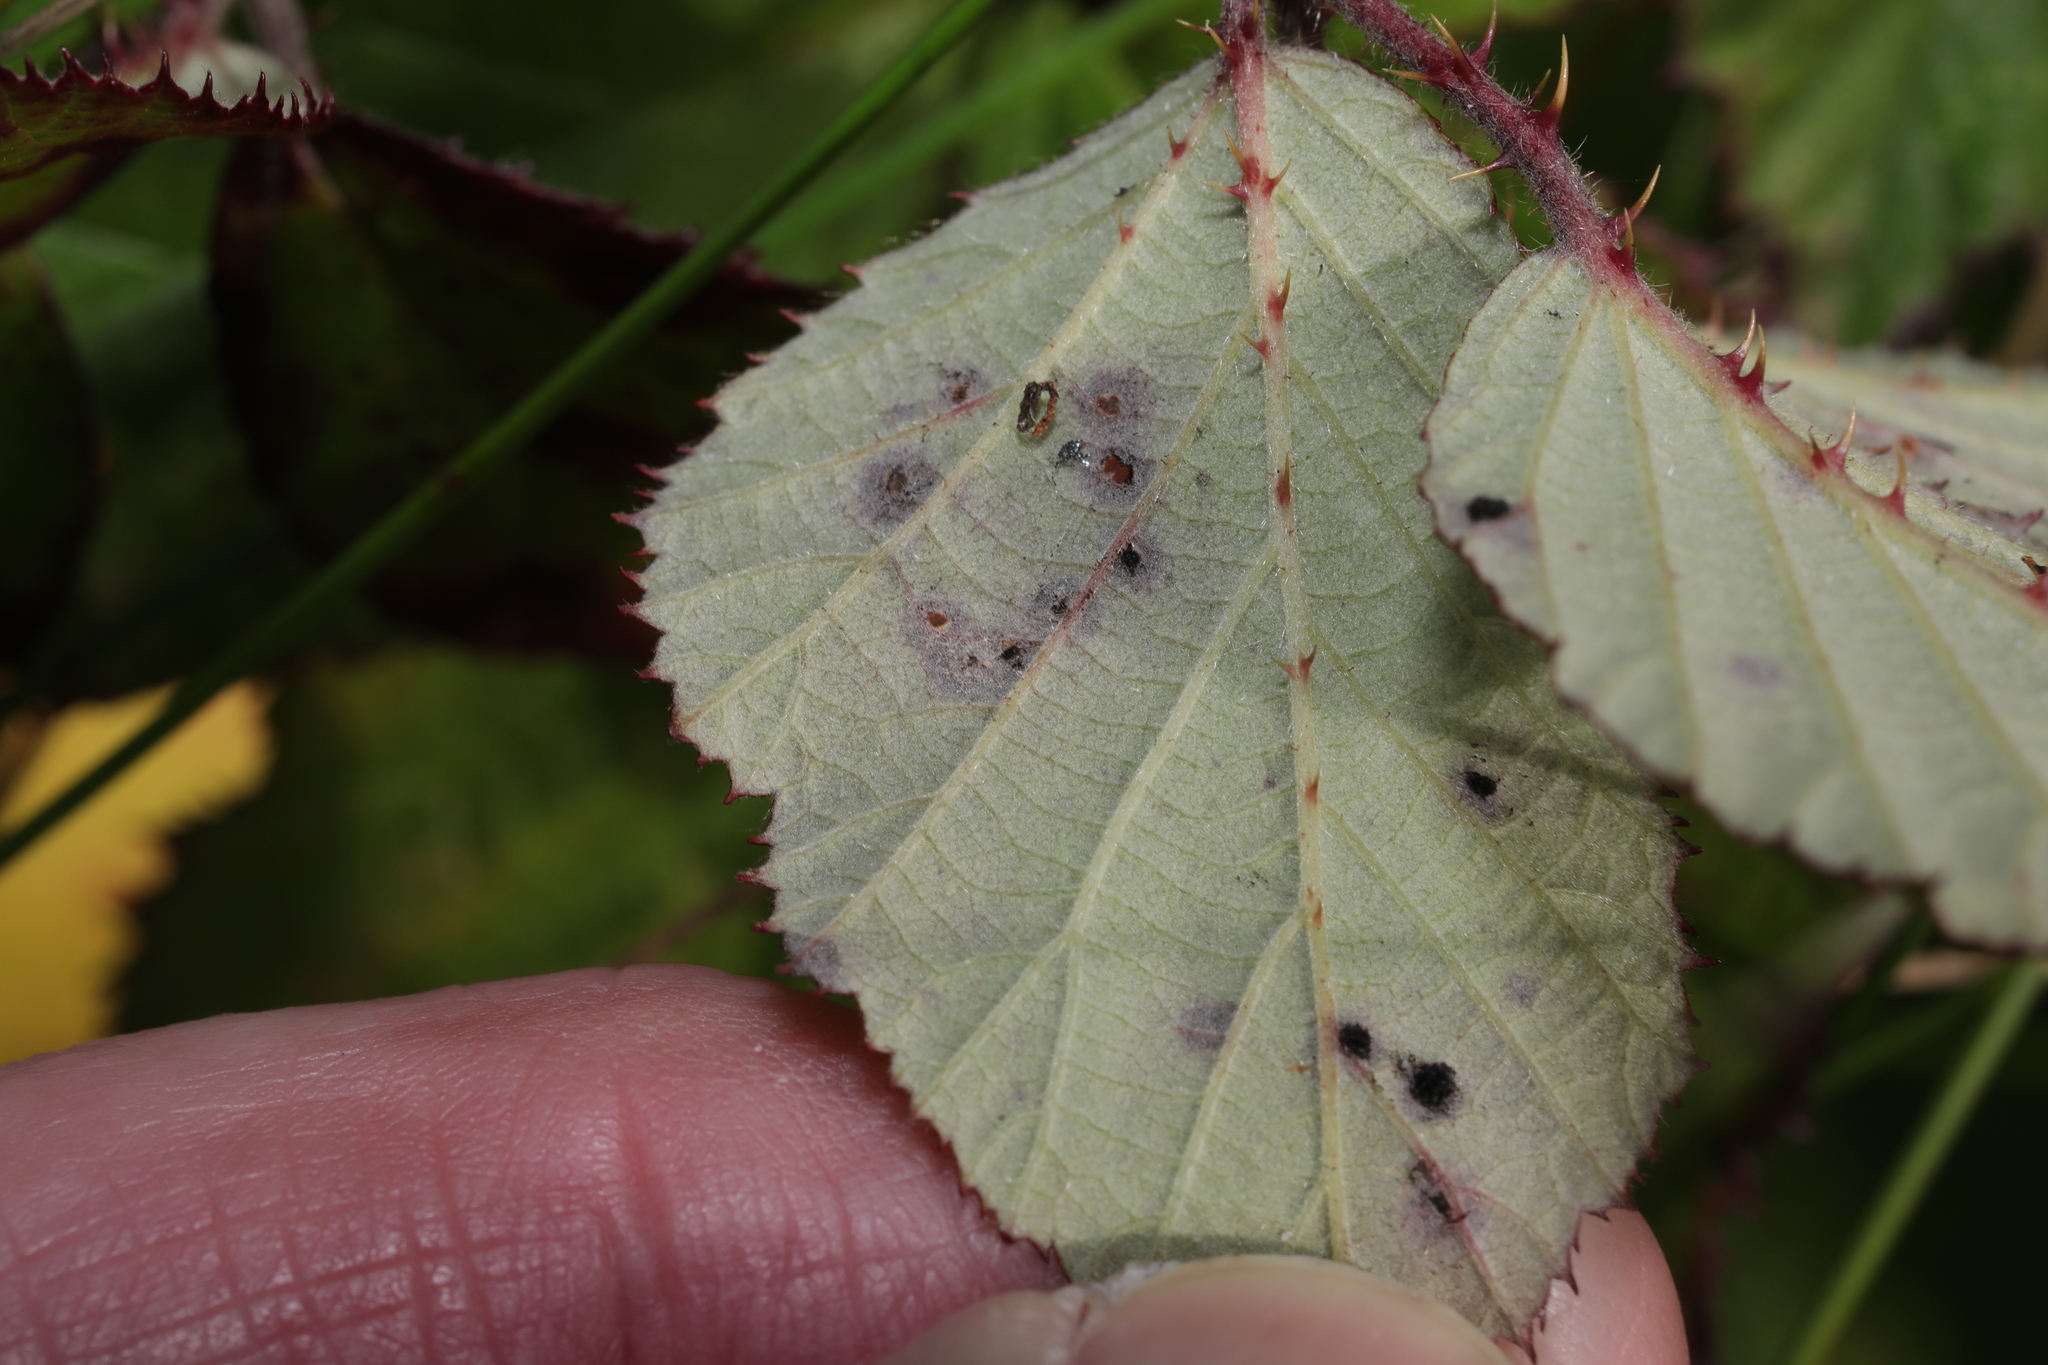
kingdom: Fungi
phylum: Basidiomycota
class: Pucciniomycetes
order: Pucciniales
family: Phragmidiaceae
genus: Phragmidium
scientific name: Phragmidium violaceum
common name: Violet bramble rust
